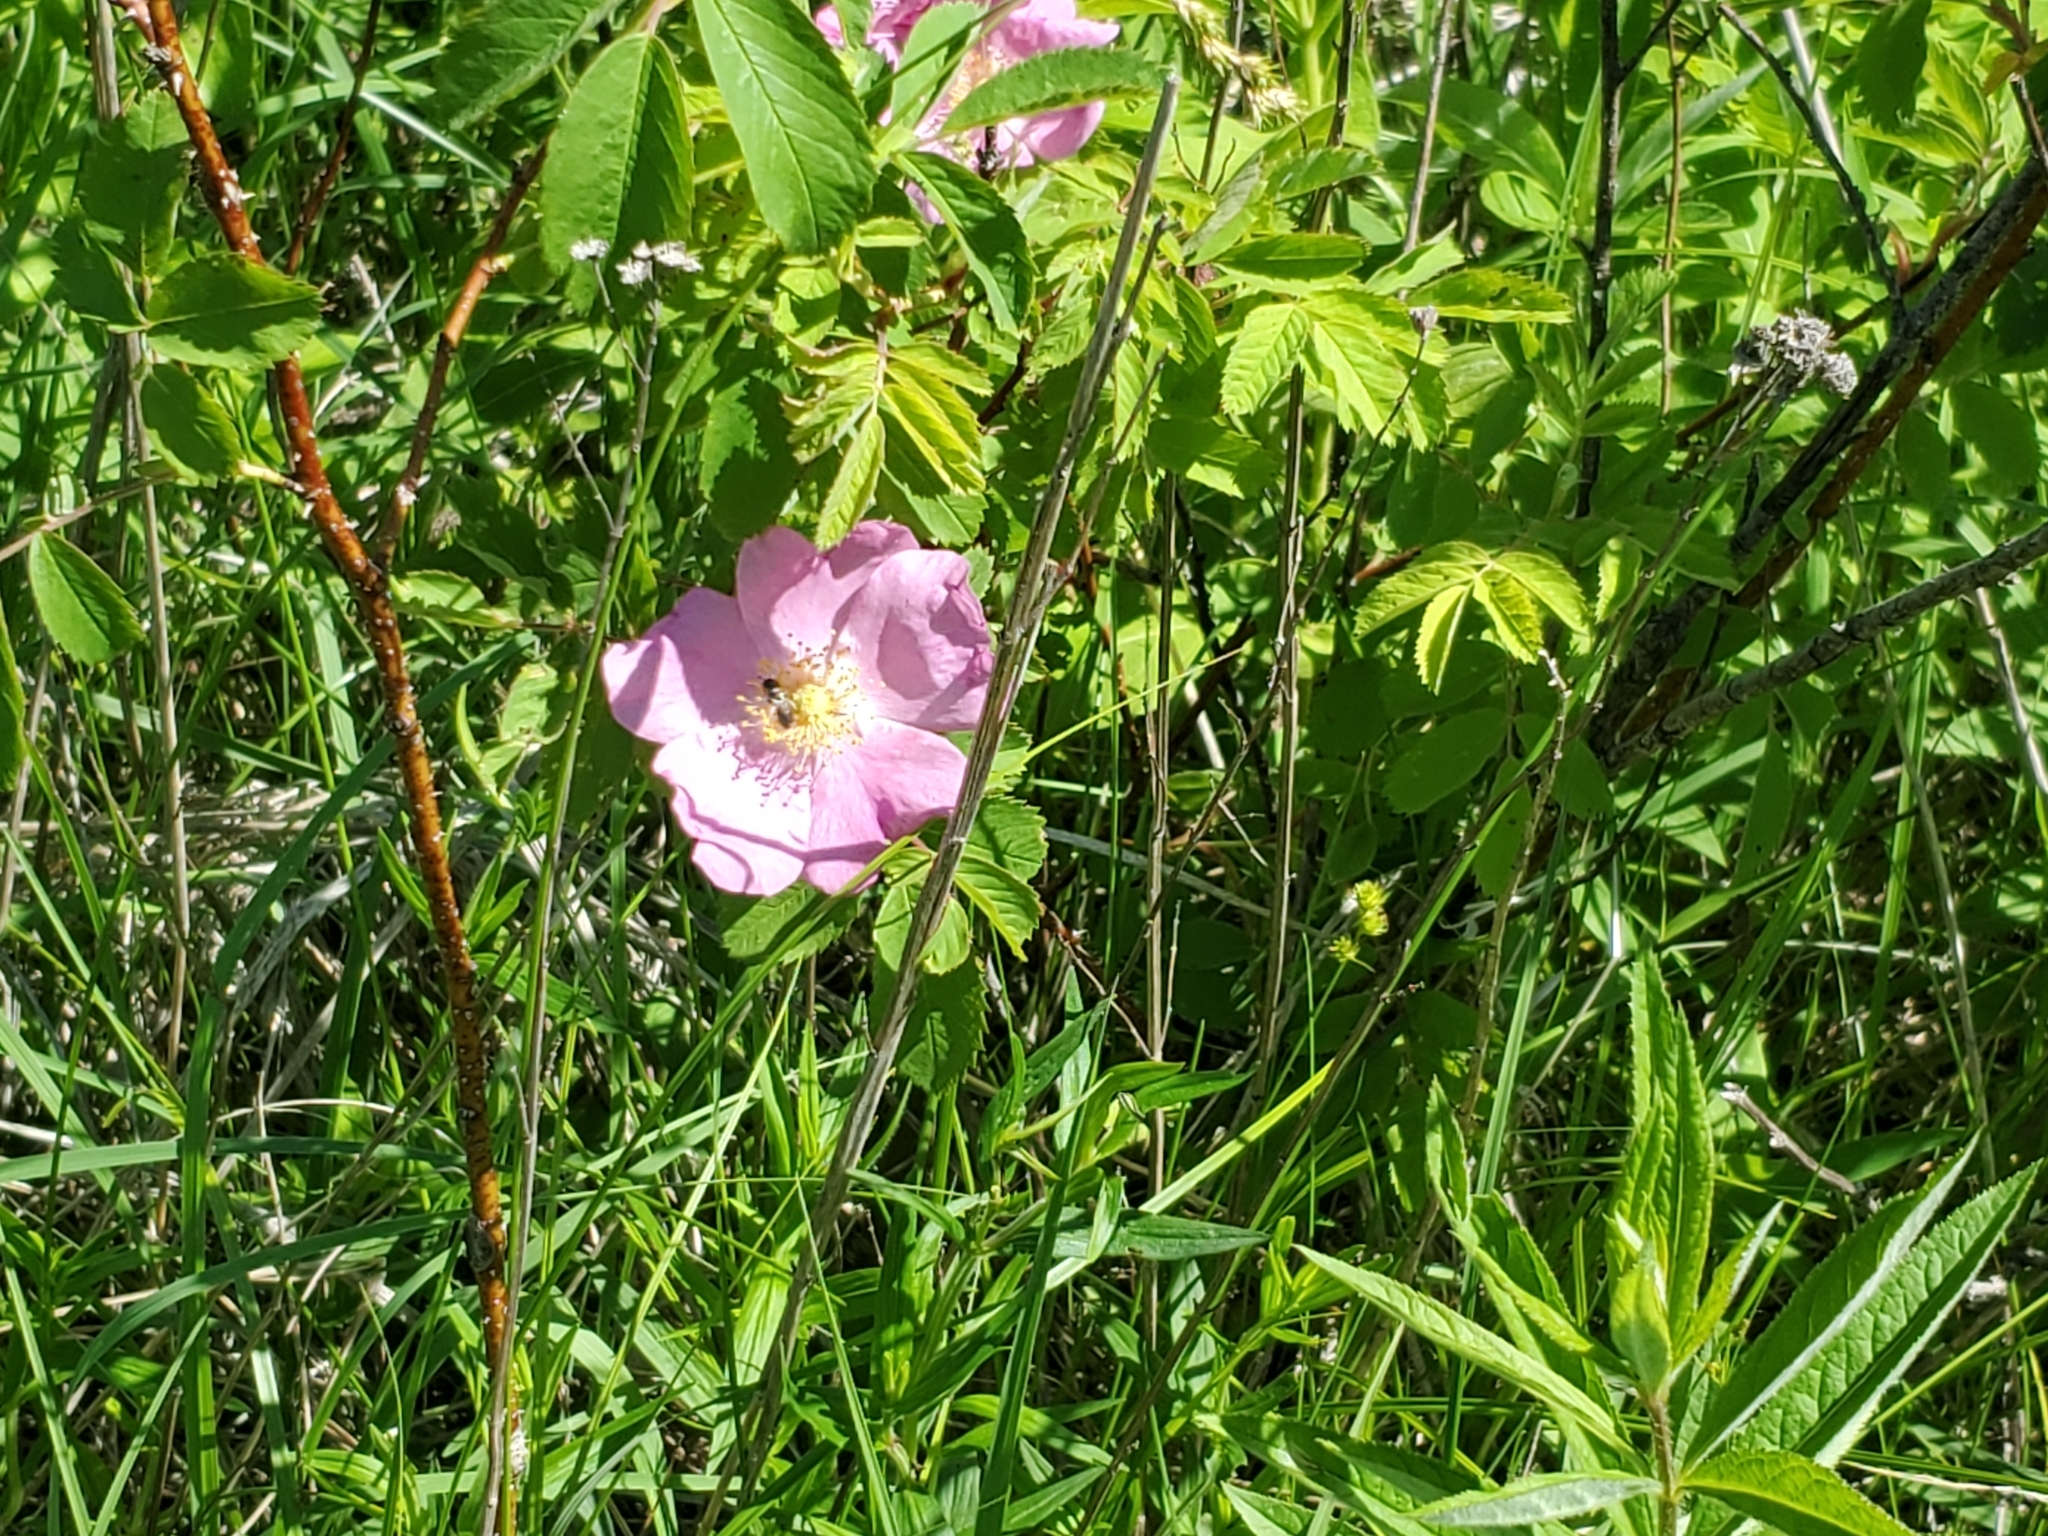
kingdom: Plantae
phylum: Tracheophyta
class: Magnoliopsida
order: Rosales
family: Rosaceae
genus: Rosa
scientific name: Rosa arkansana
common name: Prairie rose
